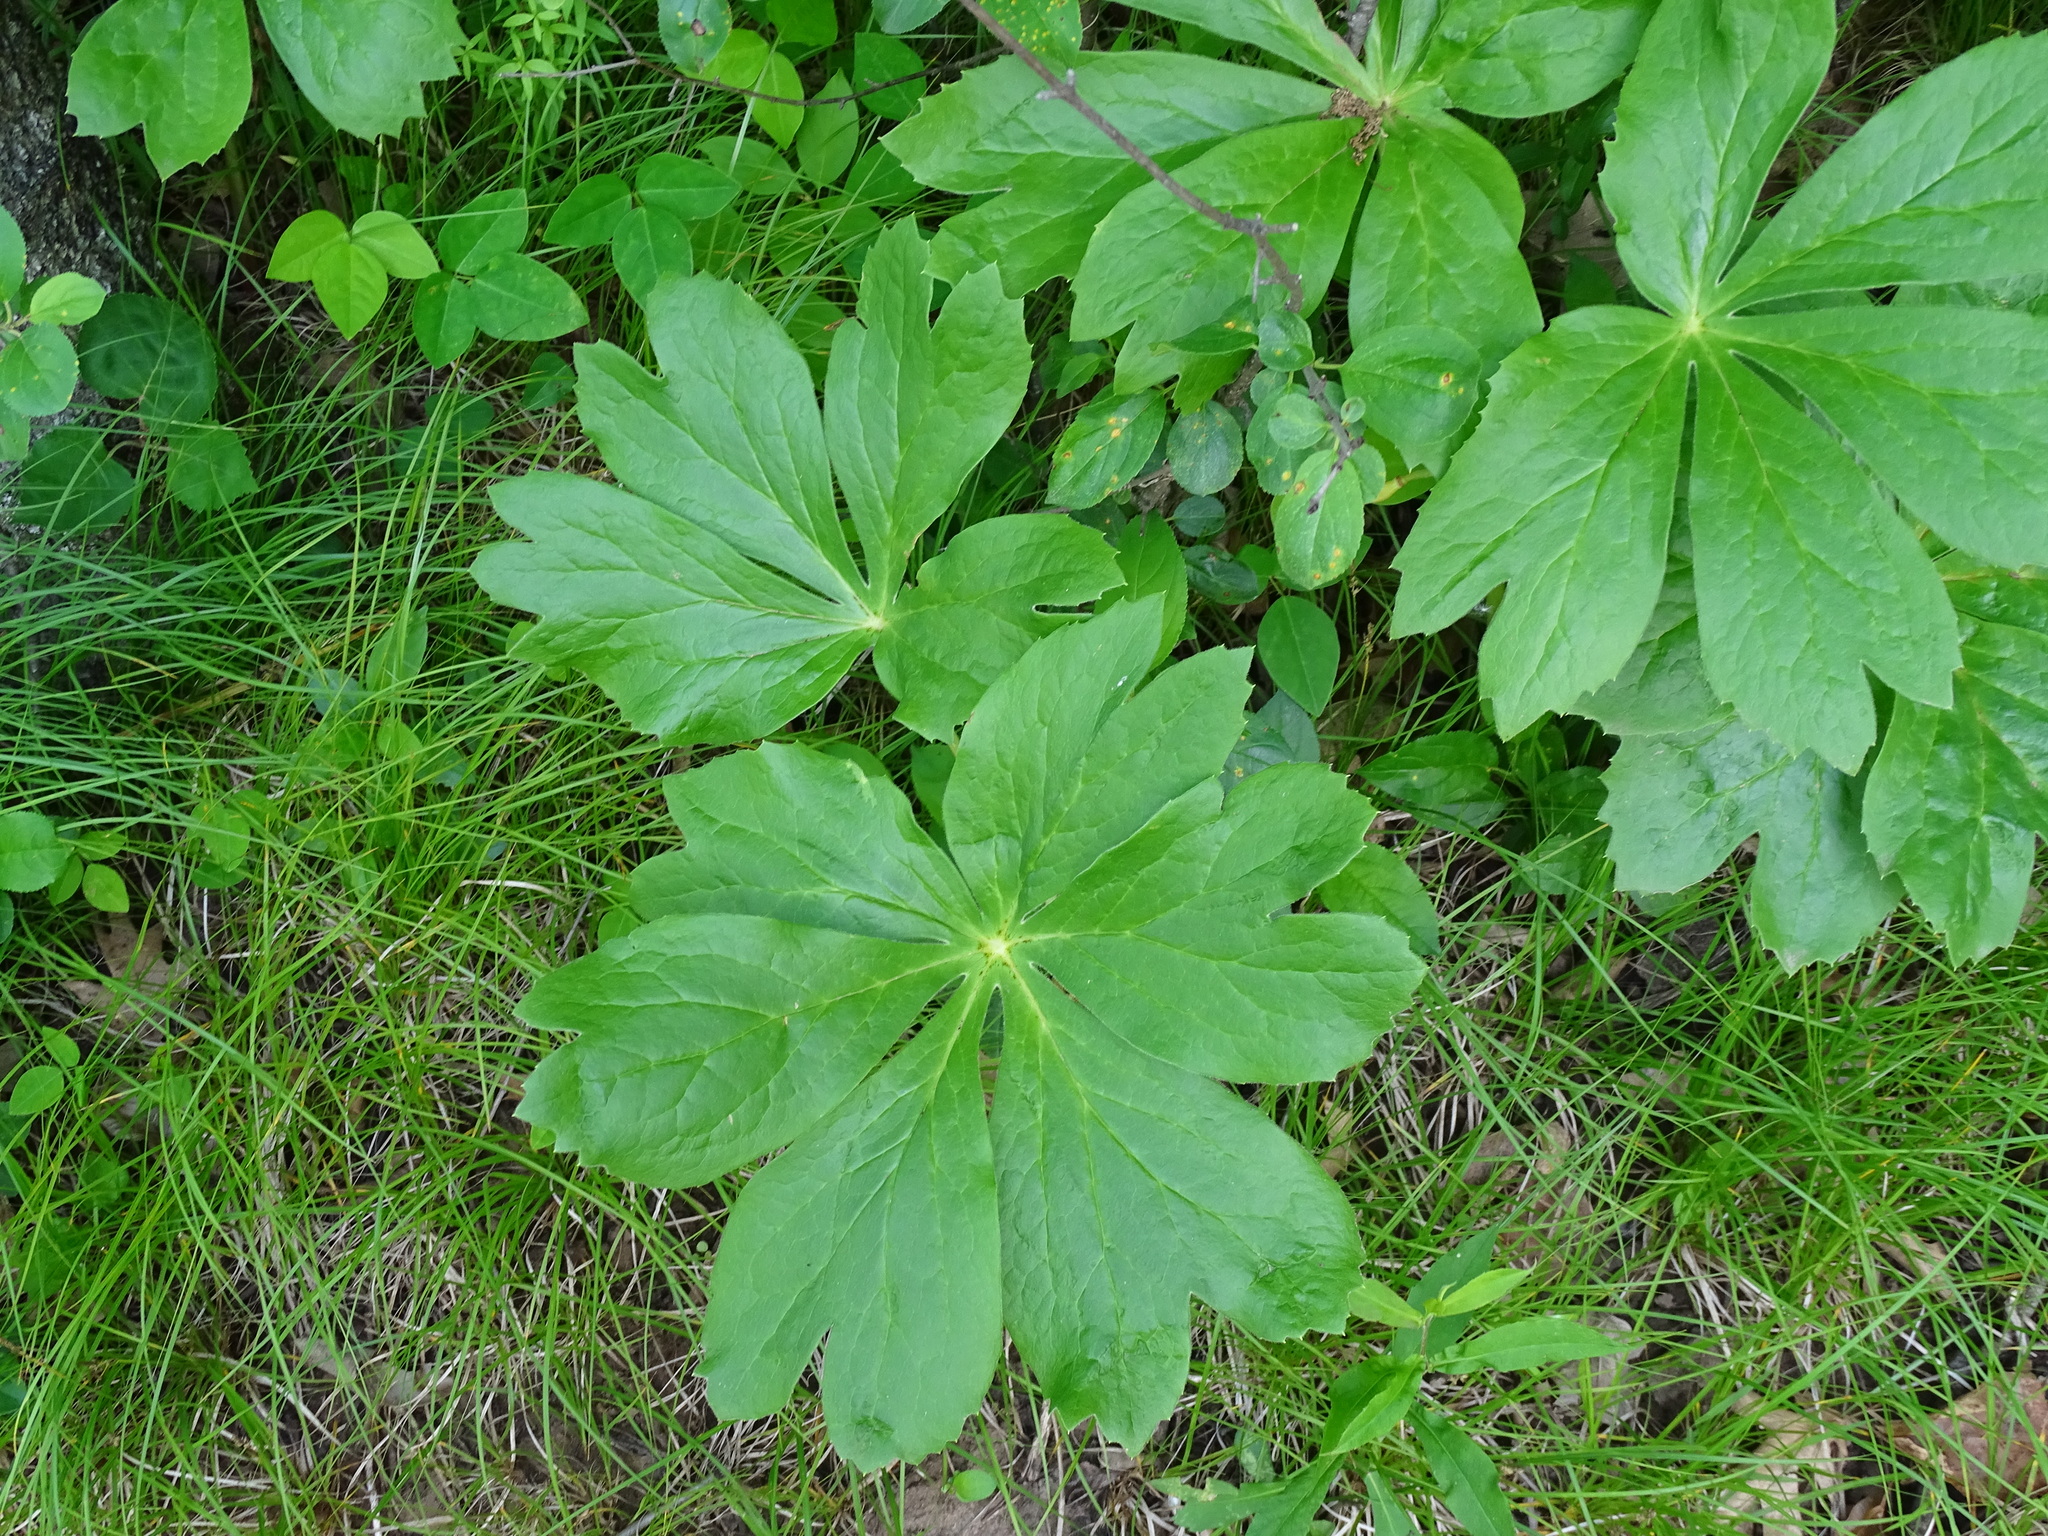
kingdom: Plantae
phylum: Tracheophyta
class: Magnoliopsida
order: Ranunculales
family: Berberidaceae
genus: Podophyllum
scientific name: Podophyllum peltatum
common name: Wild mandrake
